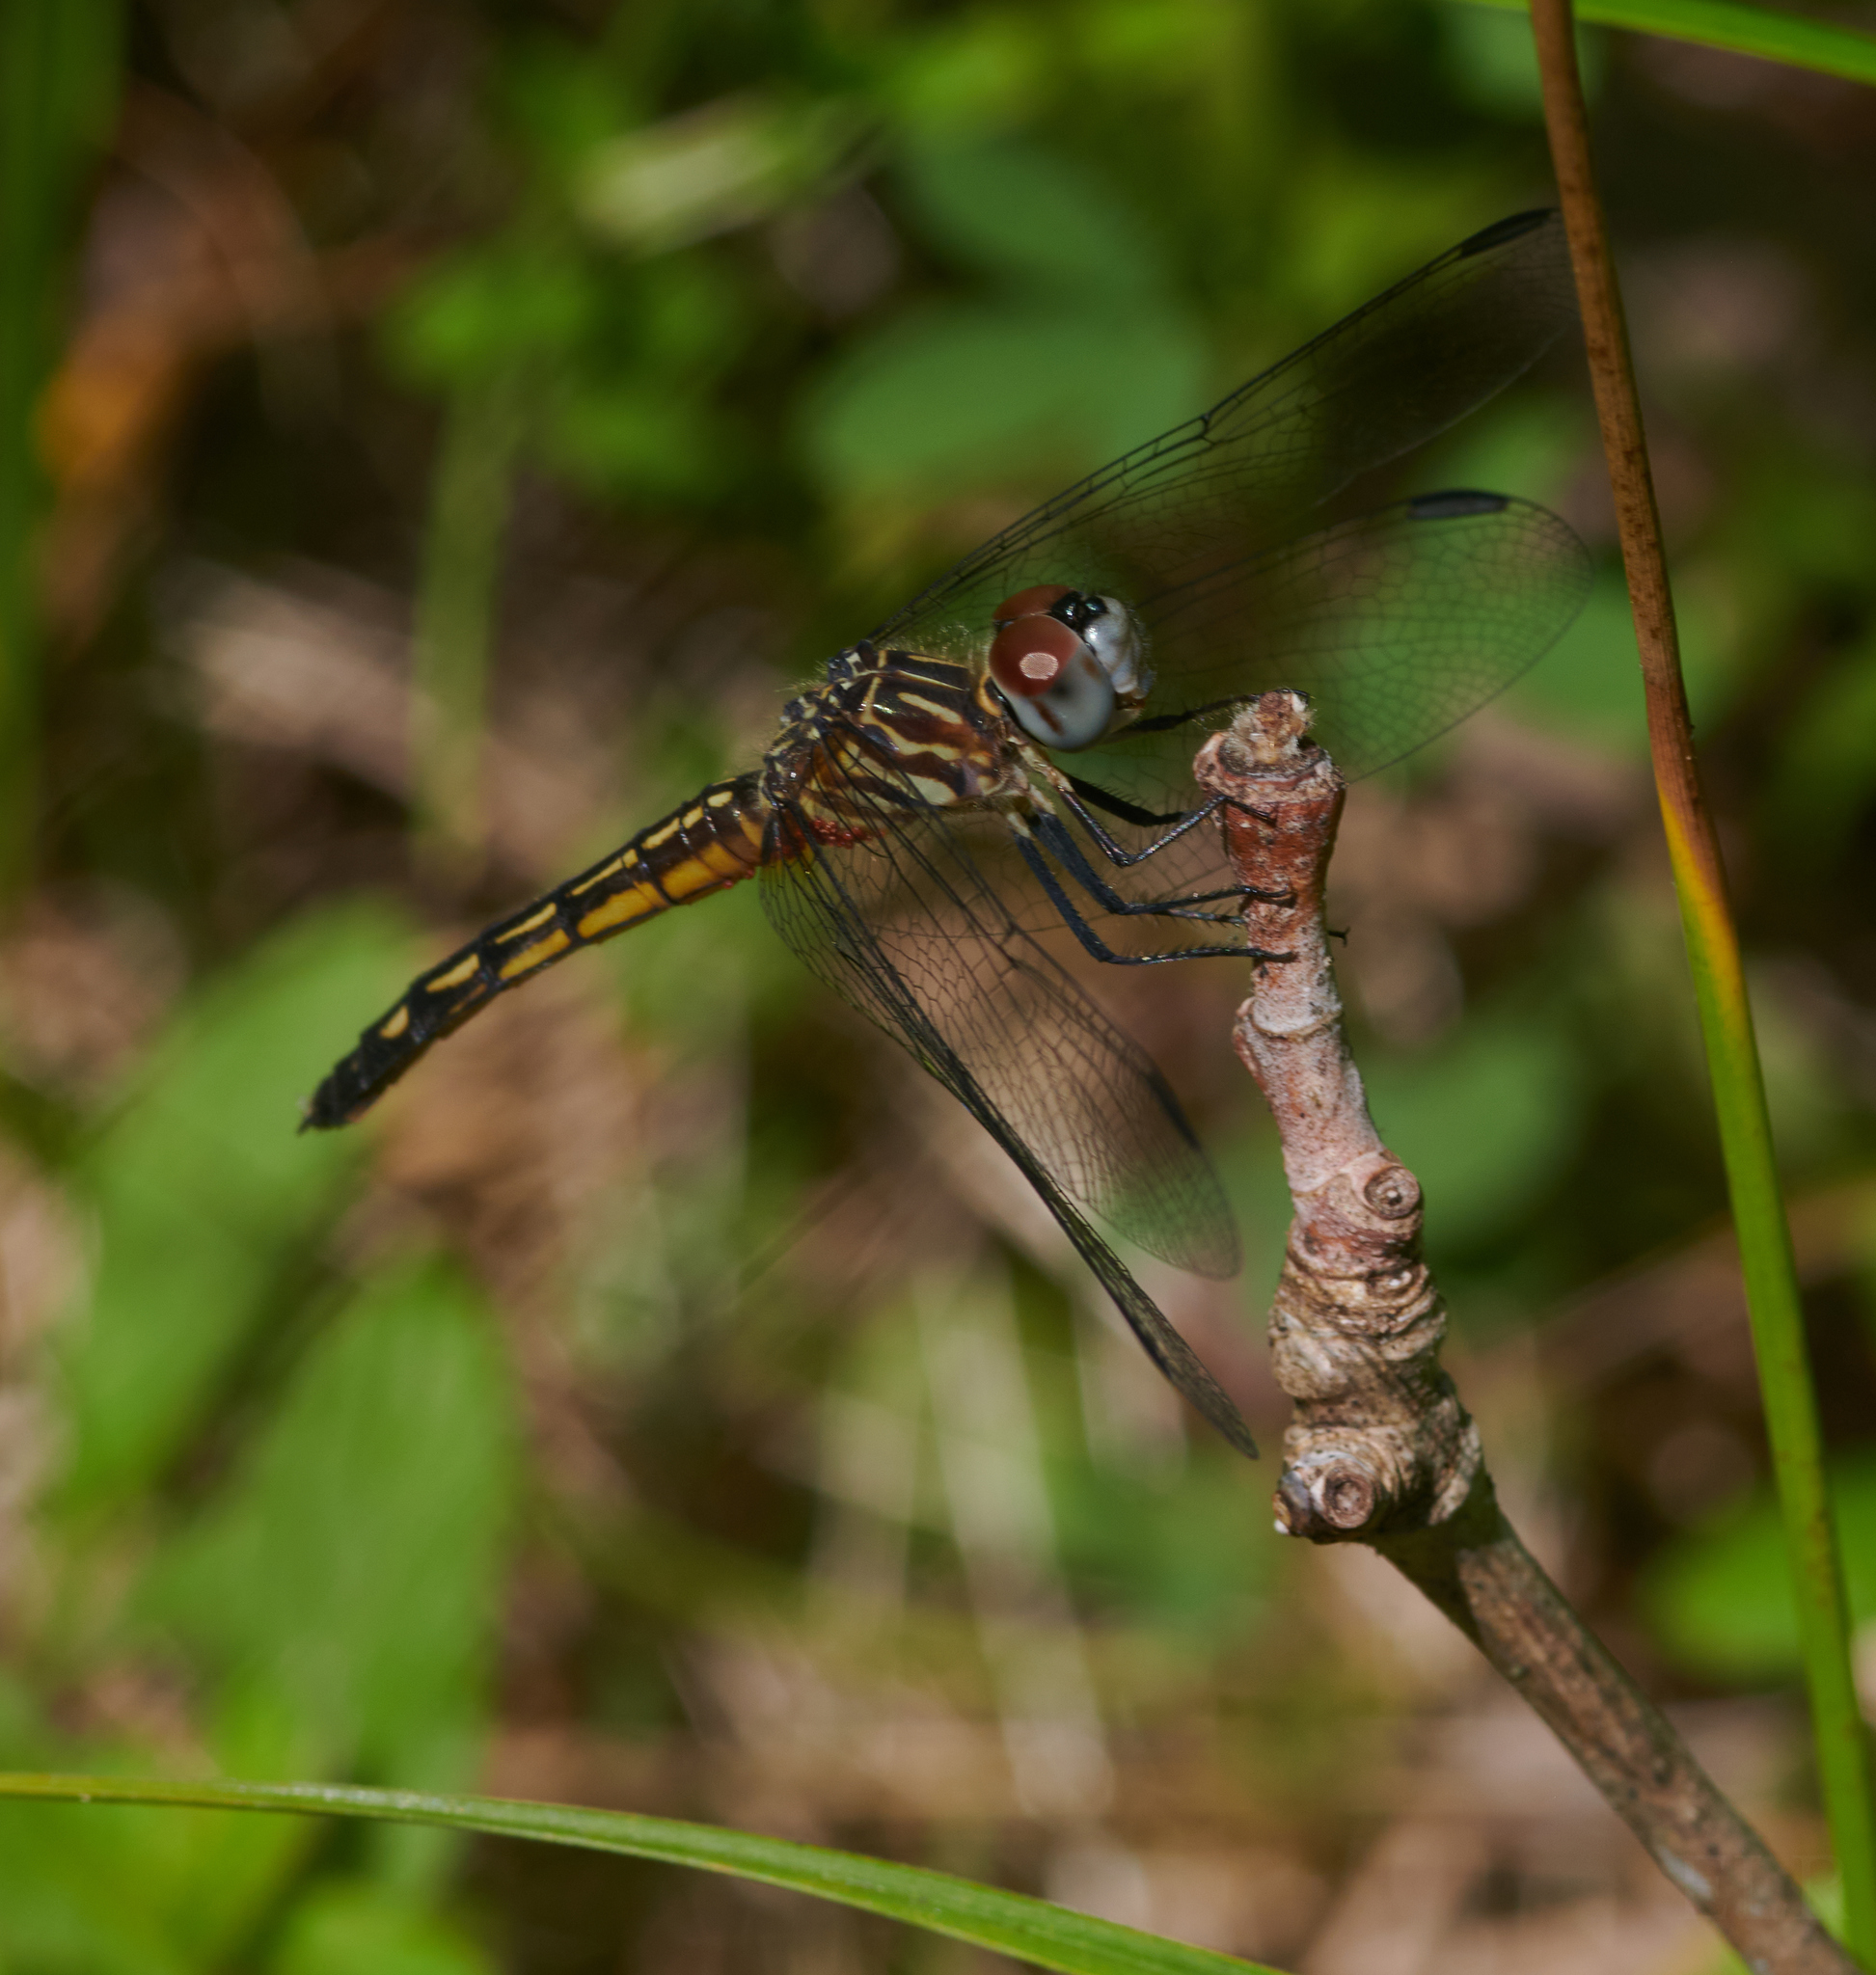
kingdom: Animalia
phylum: Arthropoda
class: Insecta
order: Odonata
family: Libellulidae
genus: Pachydiplax
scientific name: Pachydiplax longipennis
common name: Blue dasher
